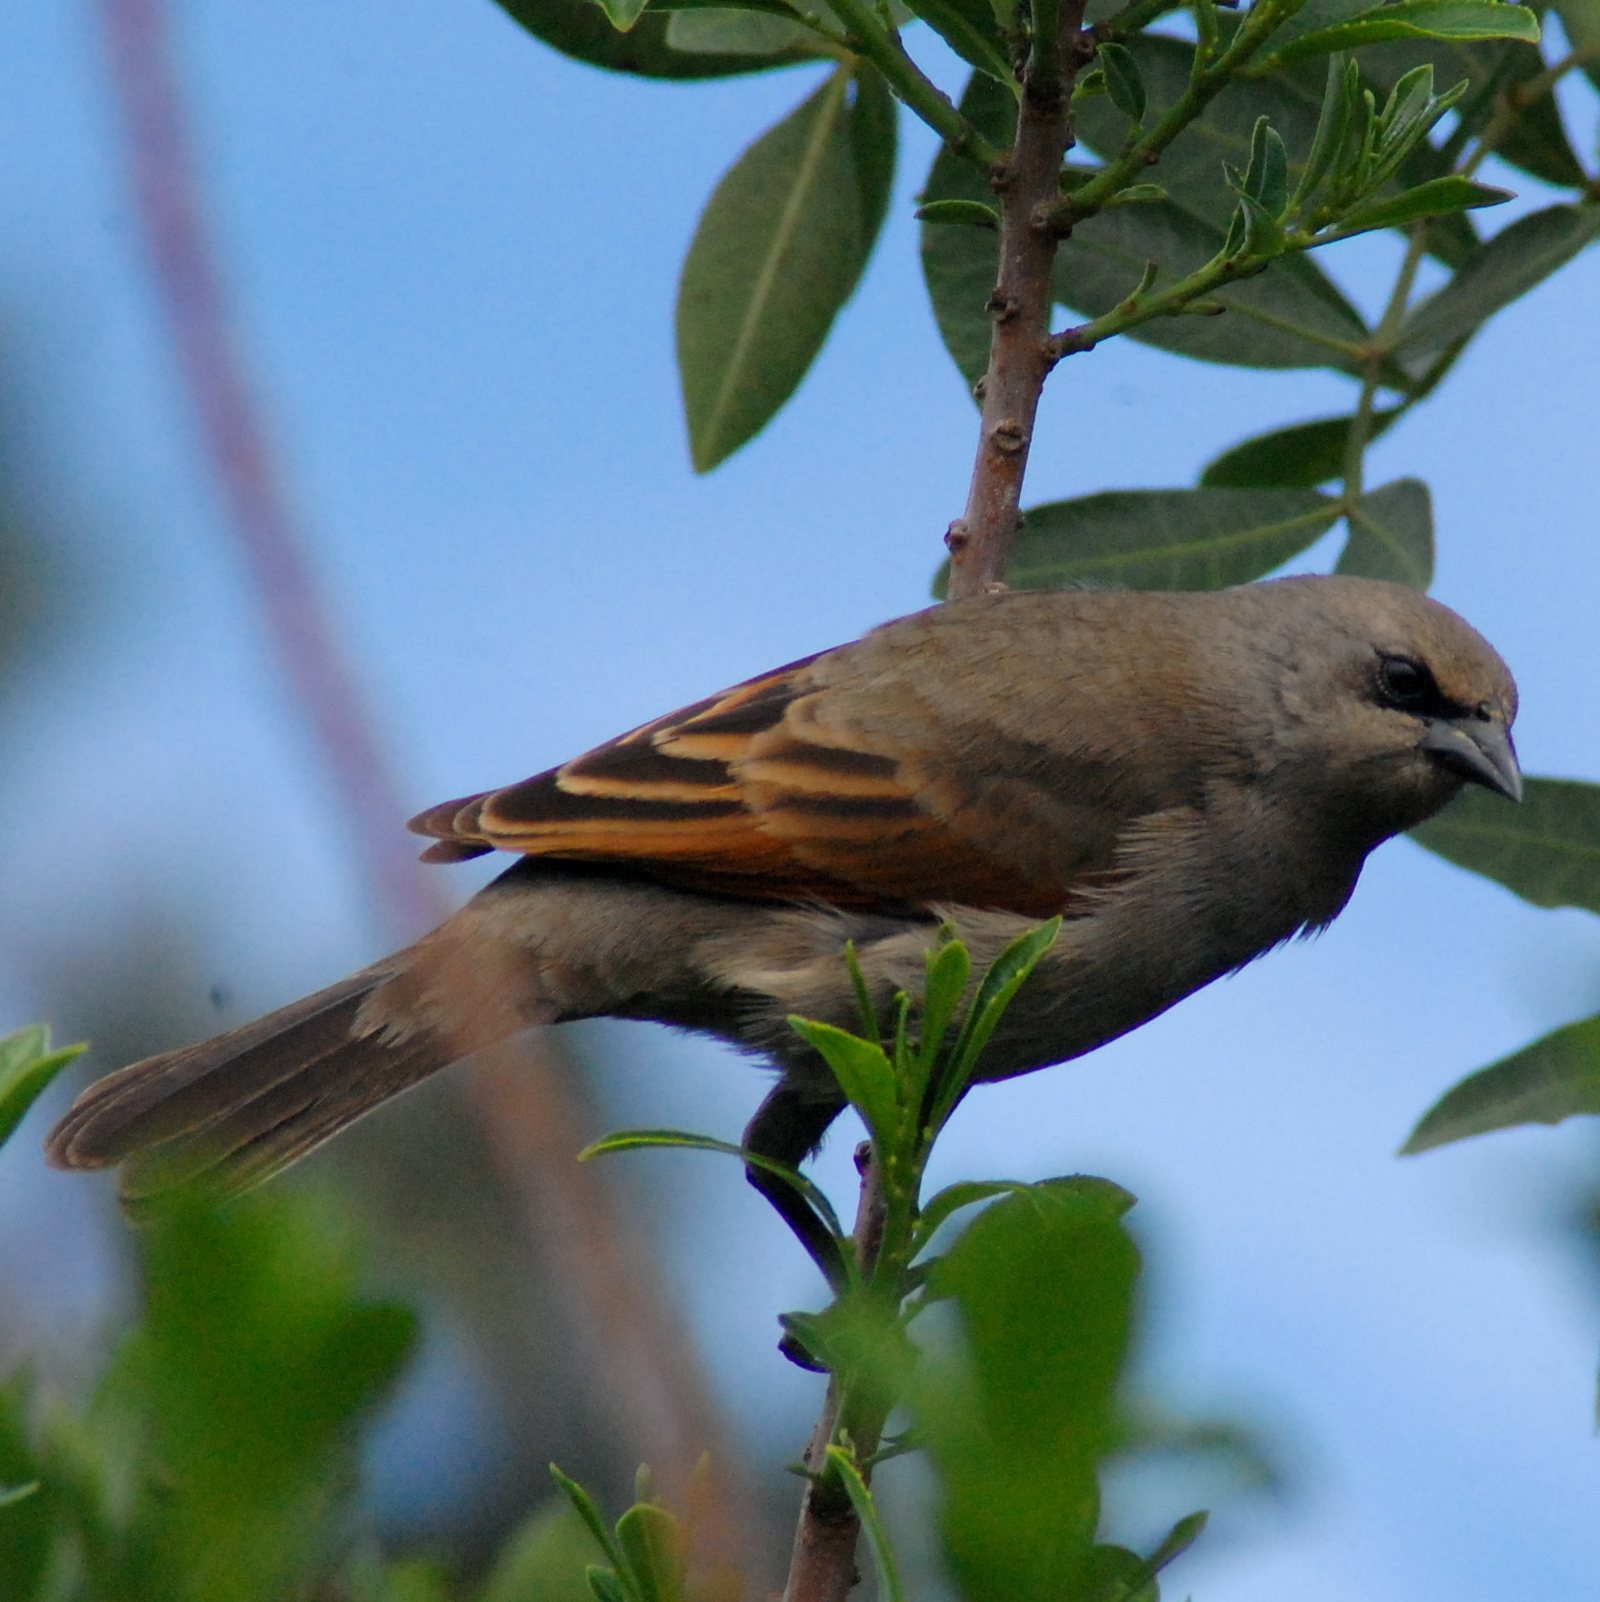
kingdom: Animalia
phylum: Chordata
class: Aves
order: Passeriformes
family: Icteridae
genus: Agelaioides
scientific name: Agelaioides badius
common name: Baywing
